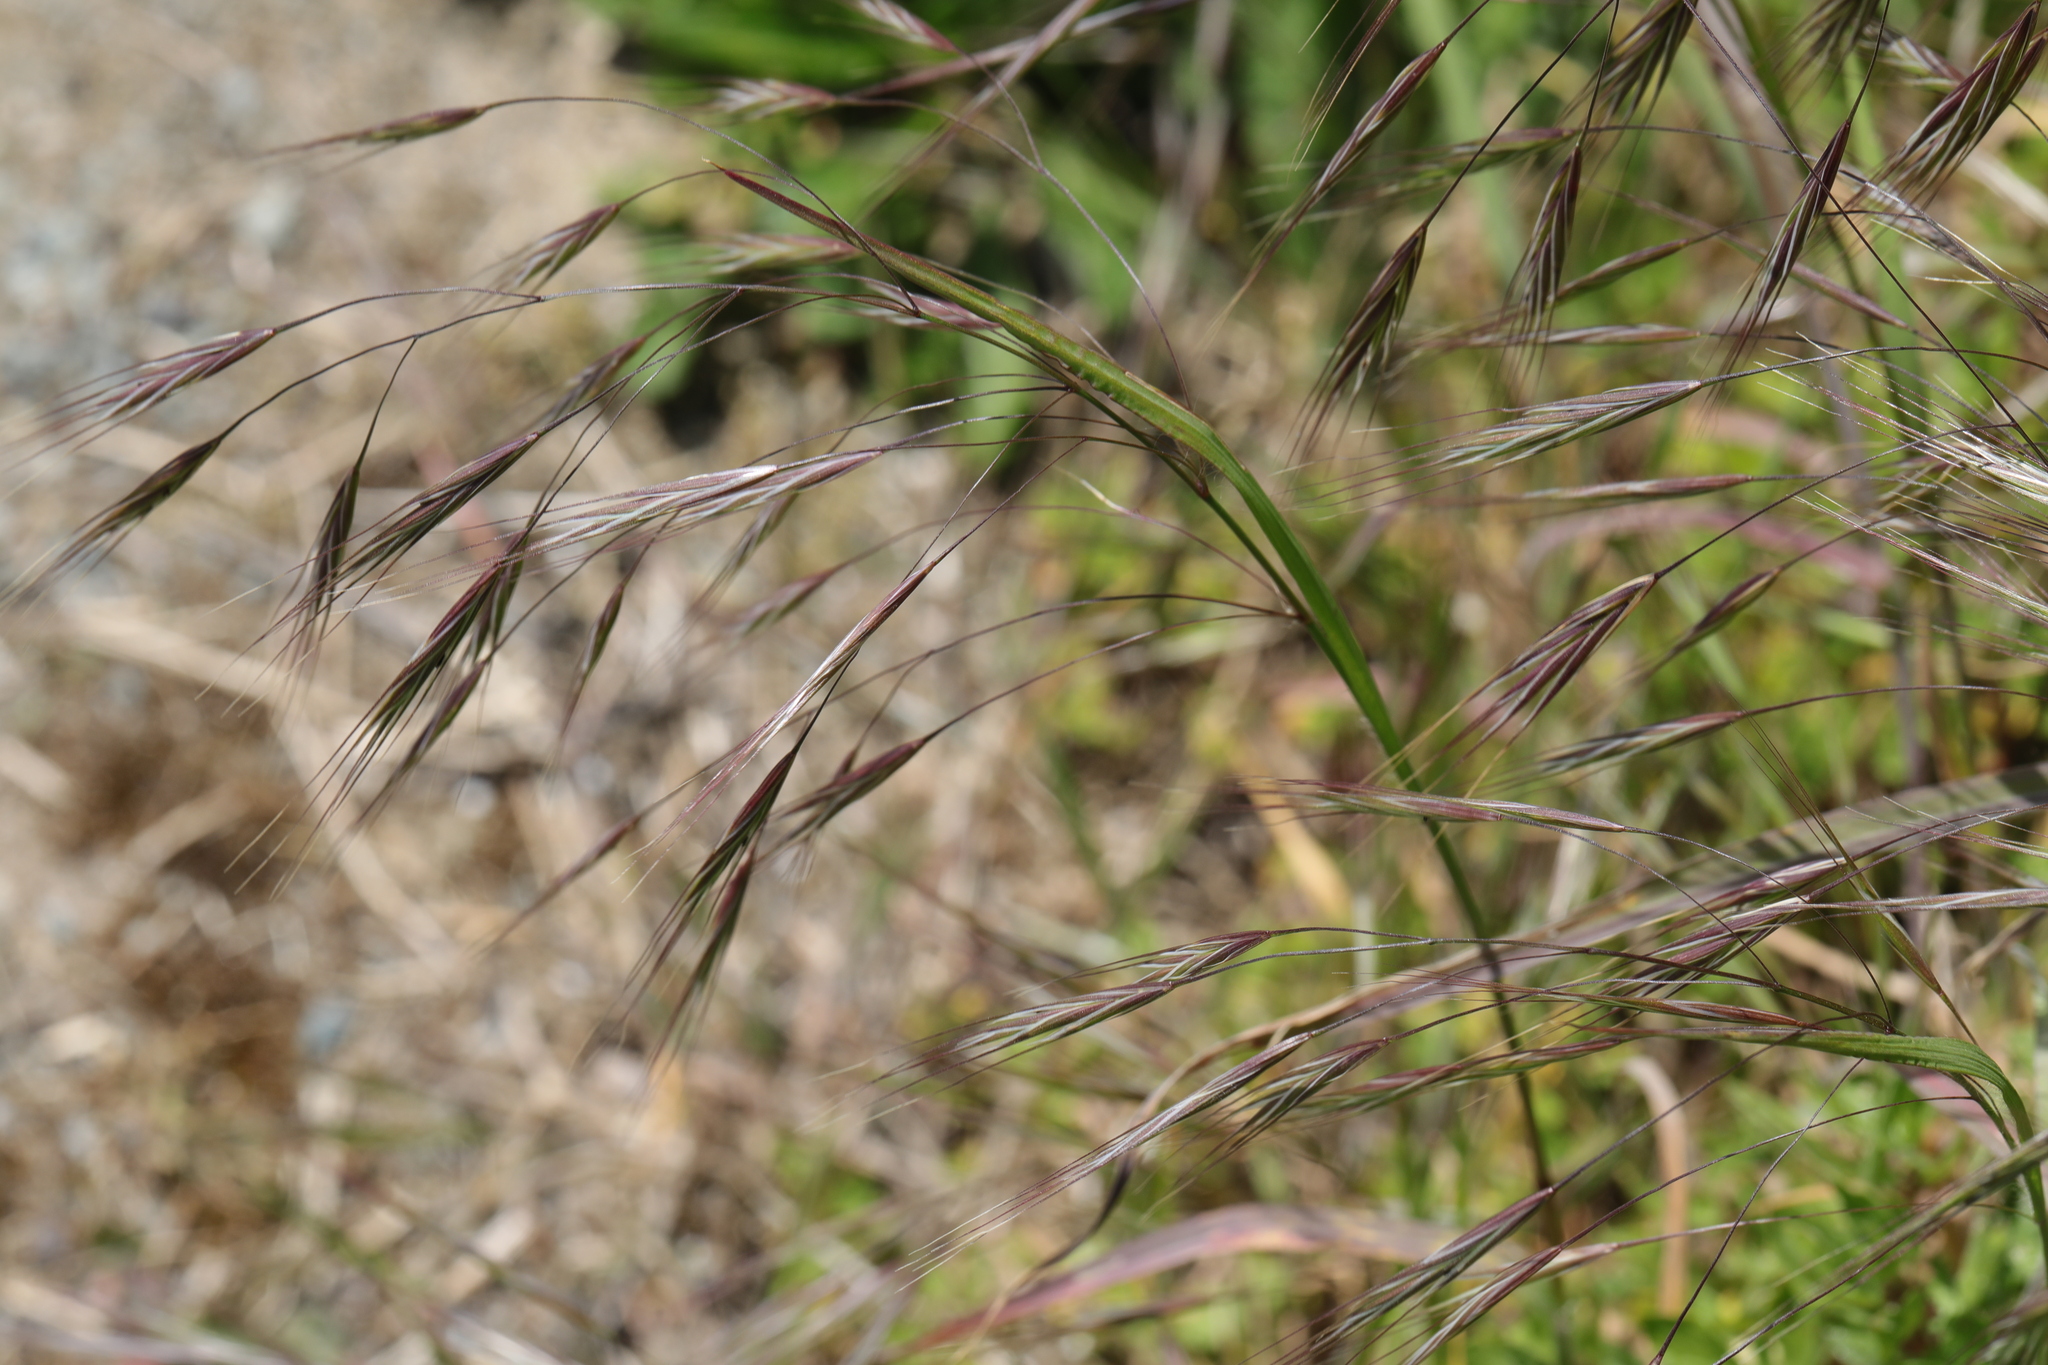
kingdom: Plantae
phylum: Tracheophyta
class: Liliopsida
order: Poales
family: Poaceae
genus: Bromus
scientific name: Bromus sterilis
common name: Poverty brome
